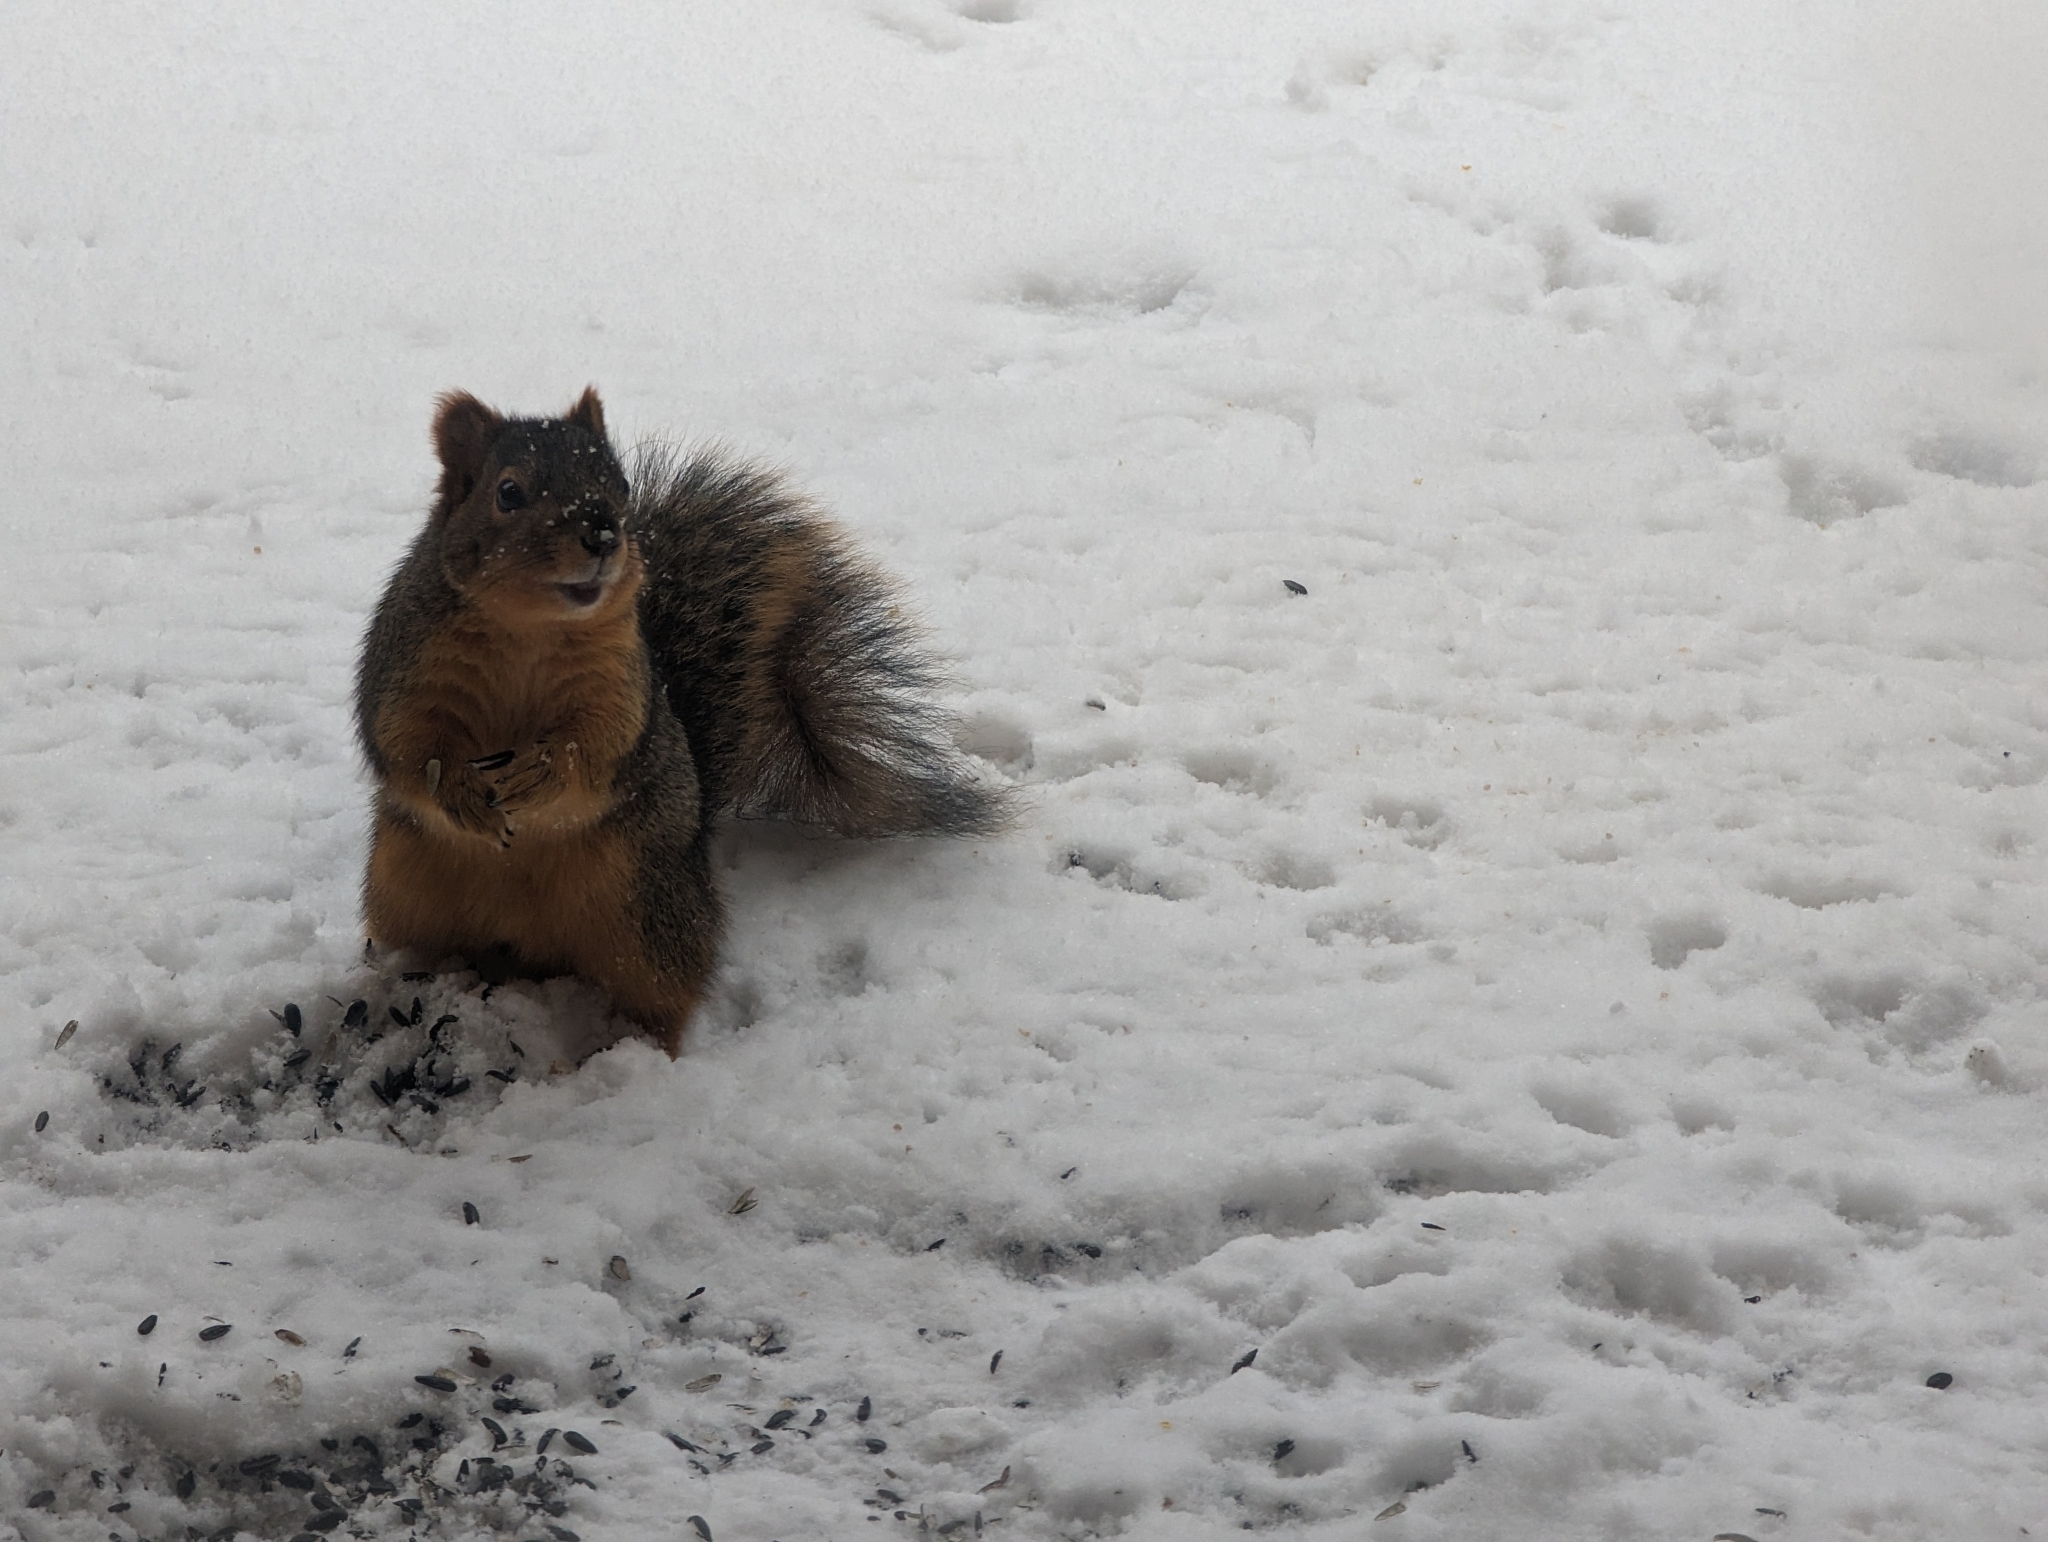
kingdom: Animalia
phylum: Chordata
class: Mammalia
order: Rodentia
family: Sciuridae
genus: Sciurus
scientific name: Sciurus niger
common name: Fox squirrel
